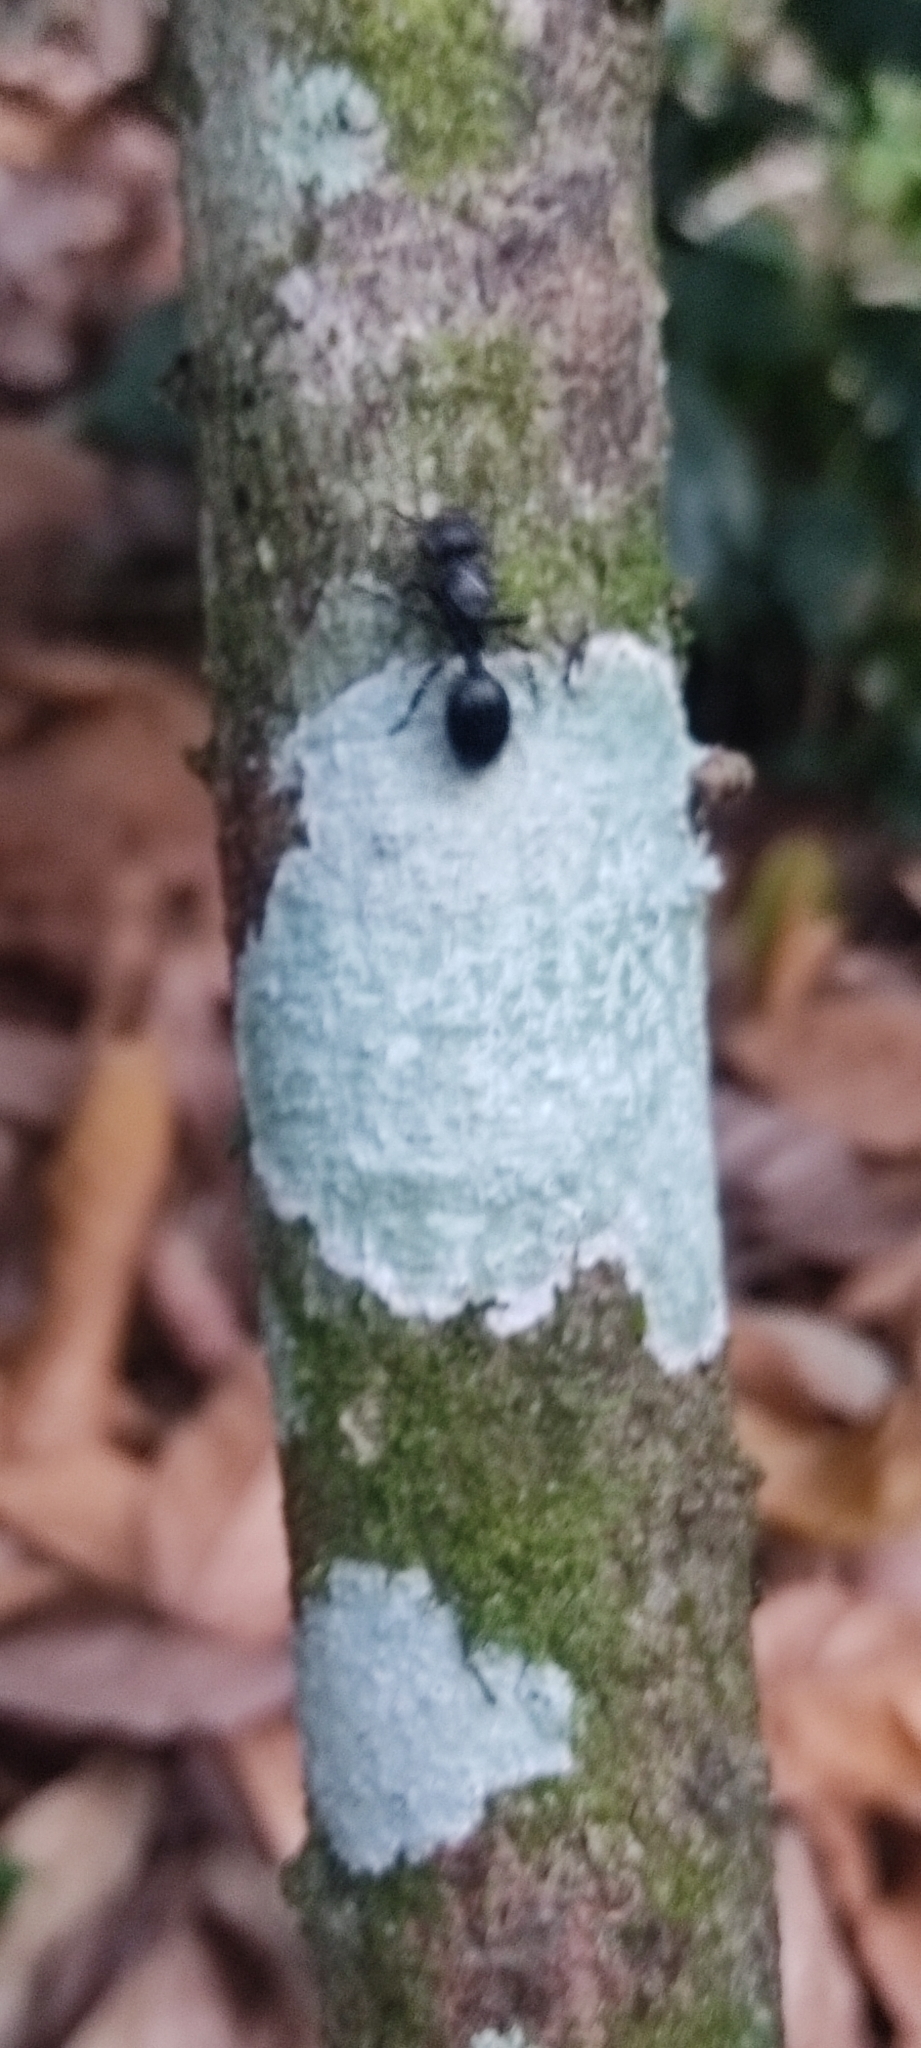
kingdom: Animalia
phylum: Arthropoda
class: Insecta
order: Hymenoptera
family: Formicidae
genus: Cephalotes
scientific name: Cephalotes atratus
